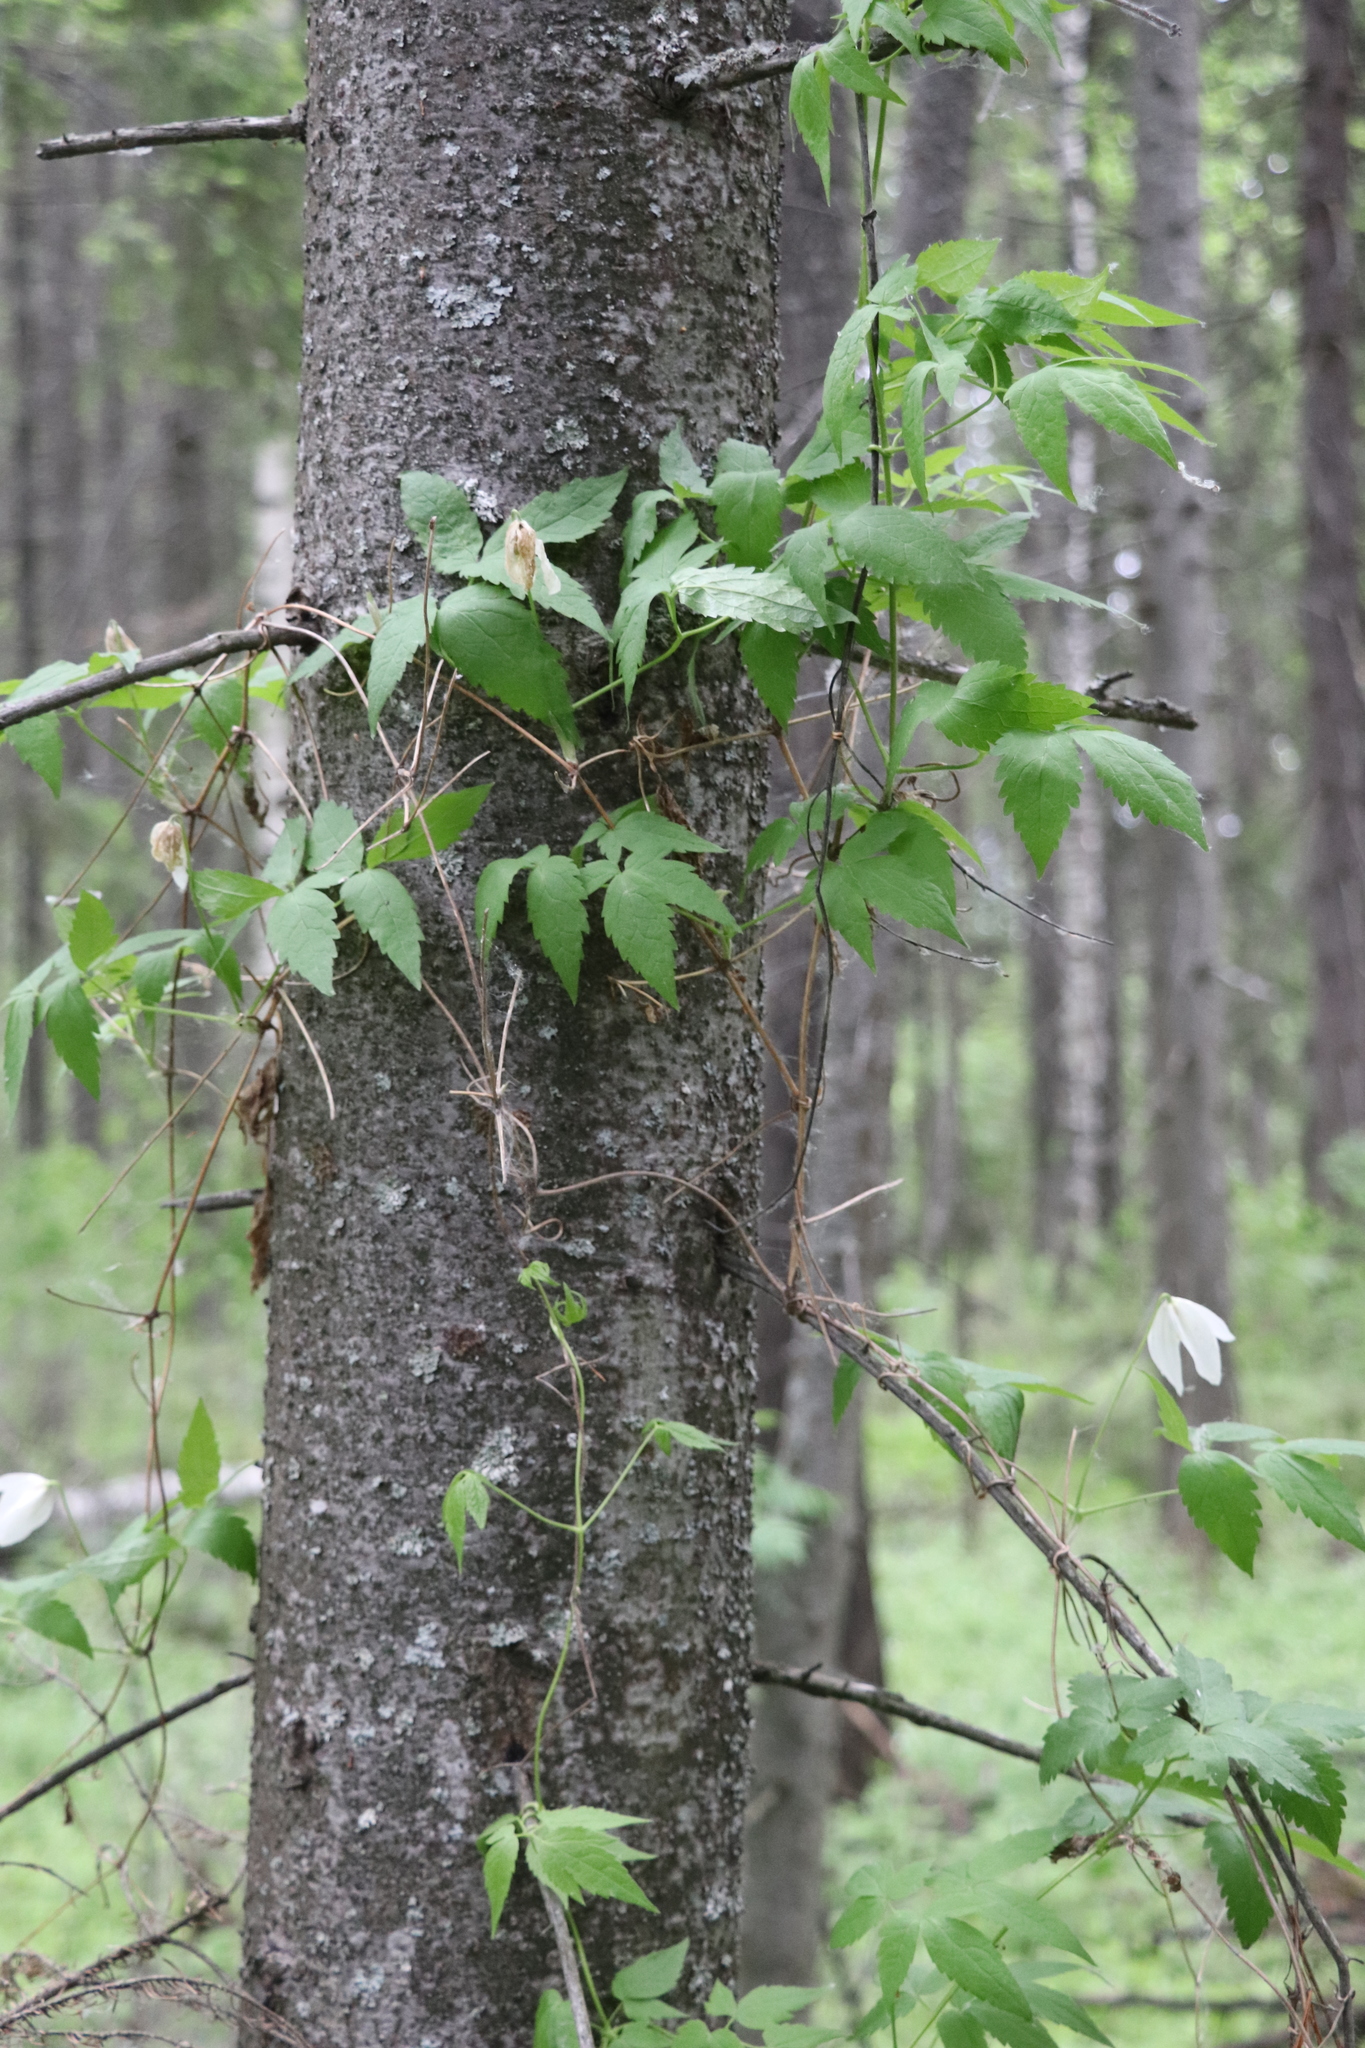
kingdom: Plantae
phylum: Tracheophyta
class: Magnoliopsida
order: Ranunculales
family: Ranunculaceae
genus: Clematis
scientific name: Clematis sibirica
